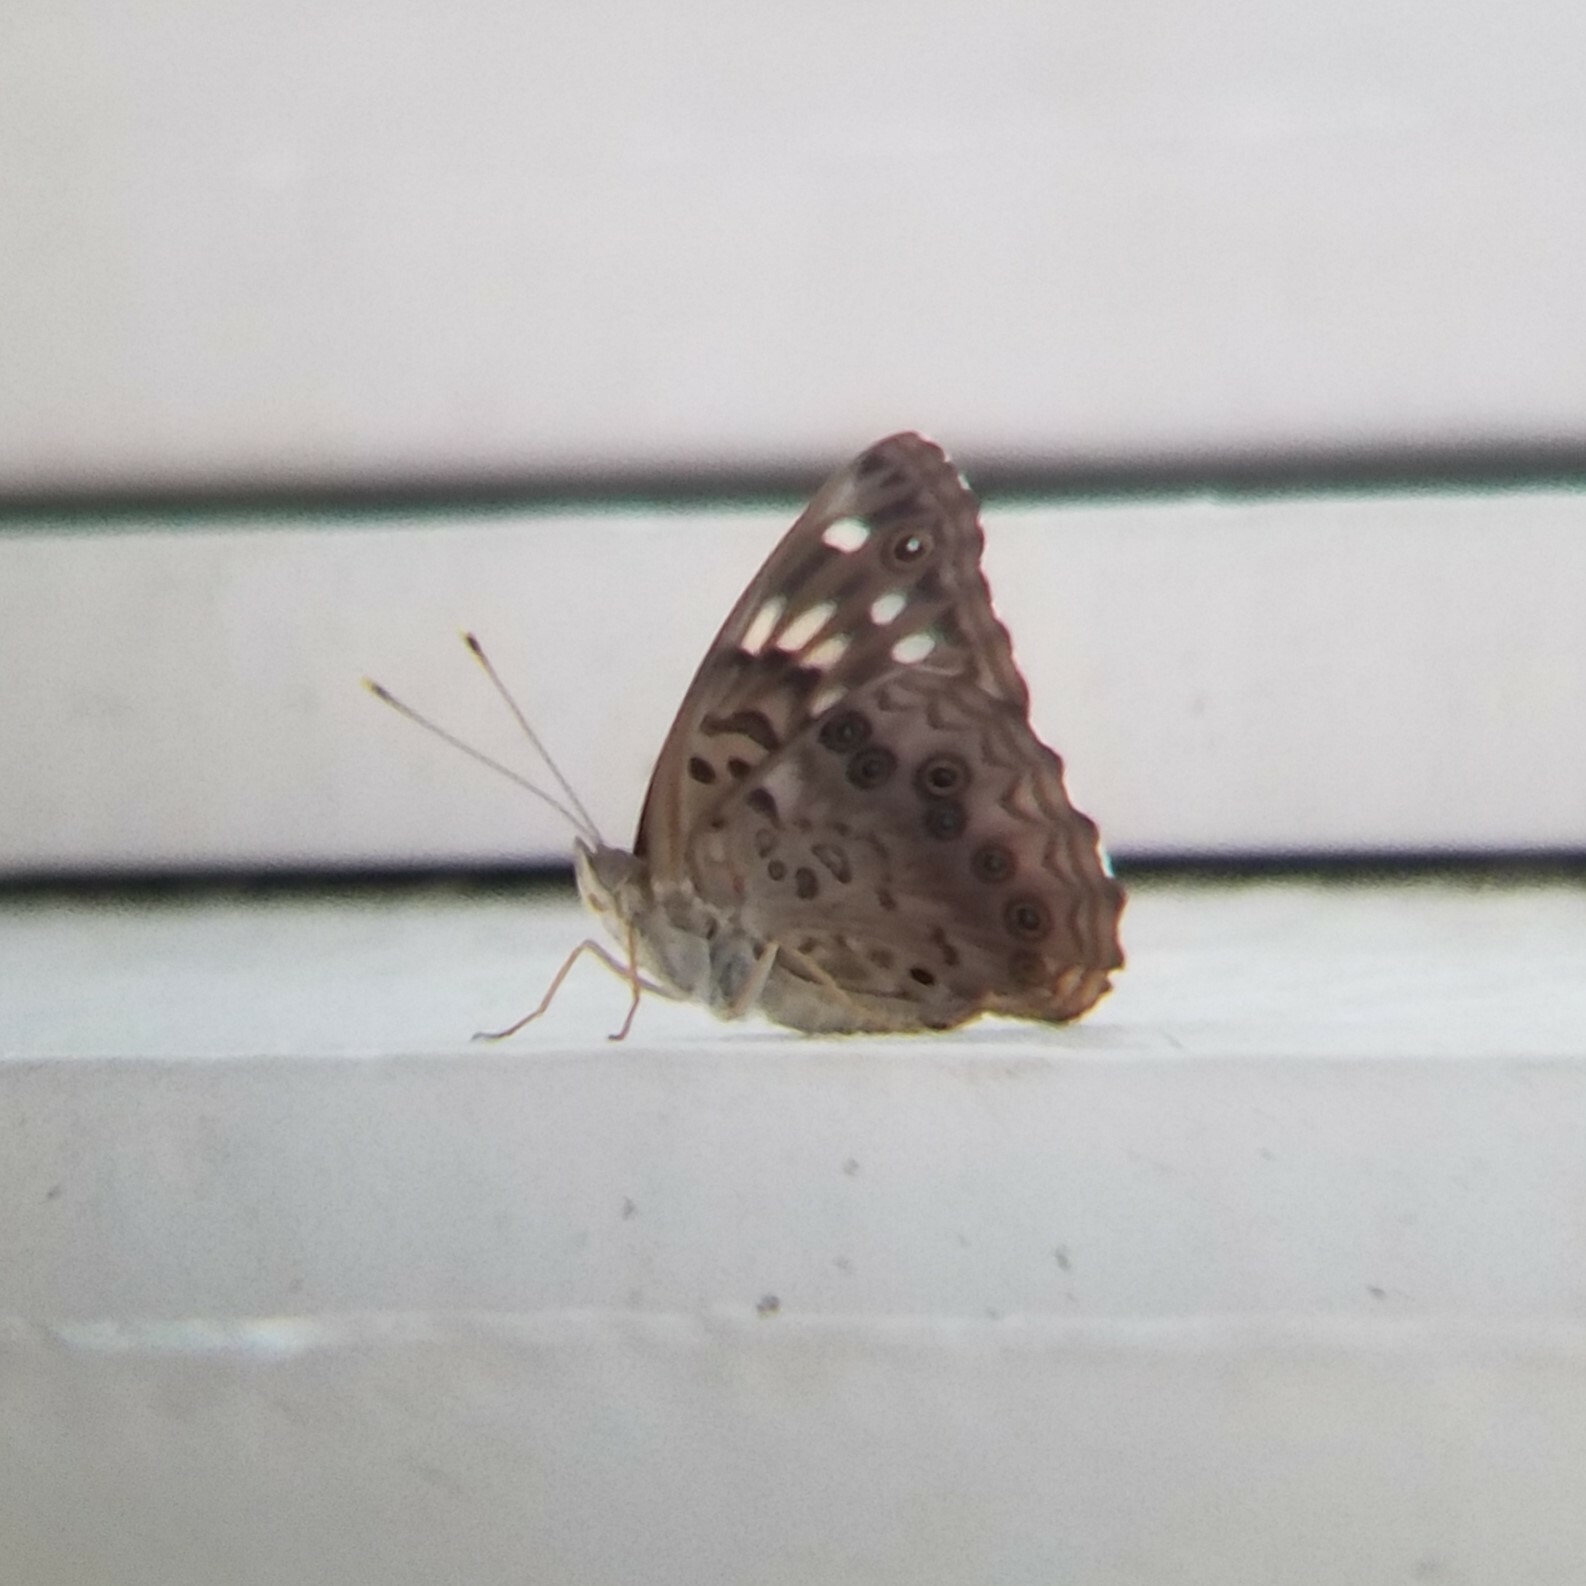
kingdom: Animalia
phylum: Arthropoda
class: Insecta
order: Lepidoptera
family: Nymphalidae
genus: Asterocampa
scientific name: Asterocampa celtis
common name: Hackberry emperor
